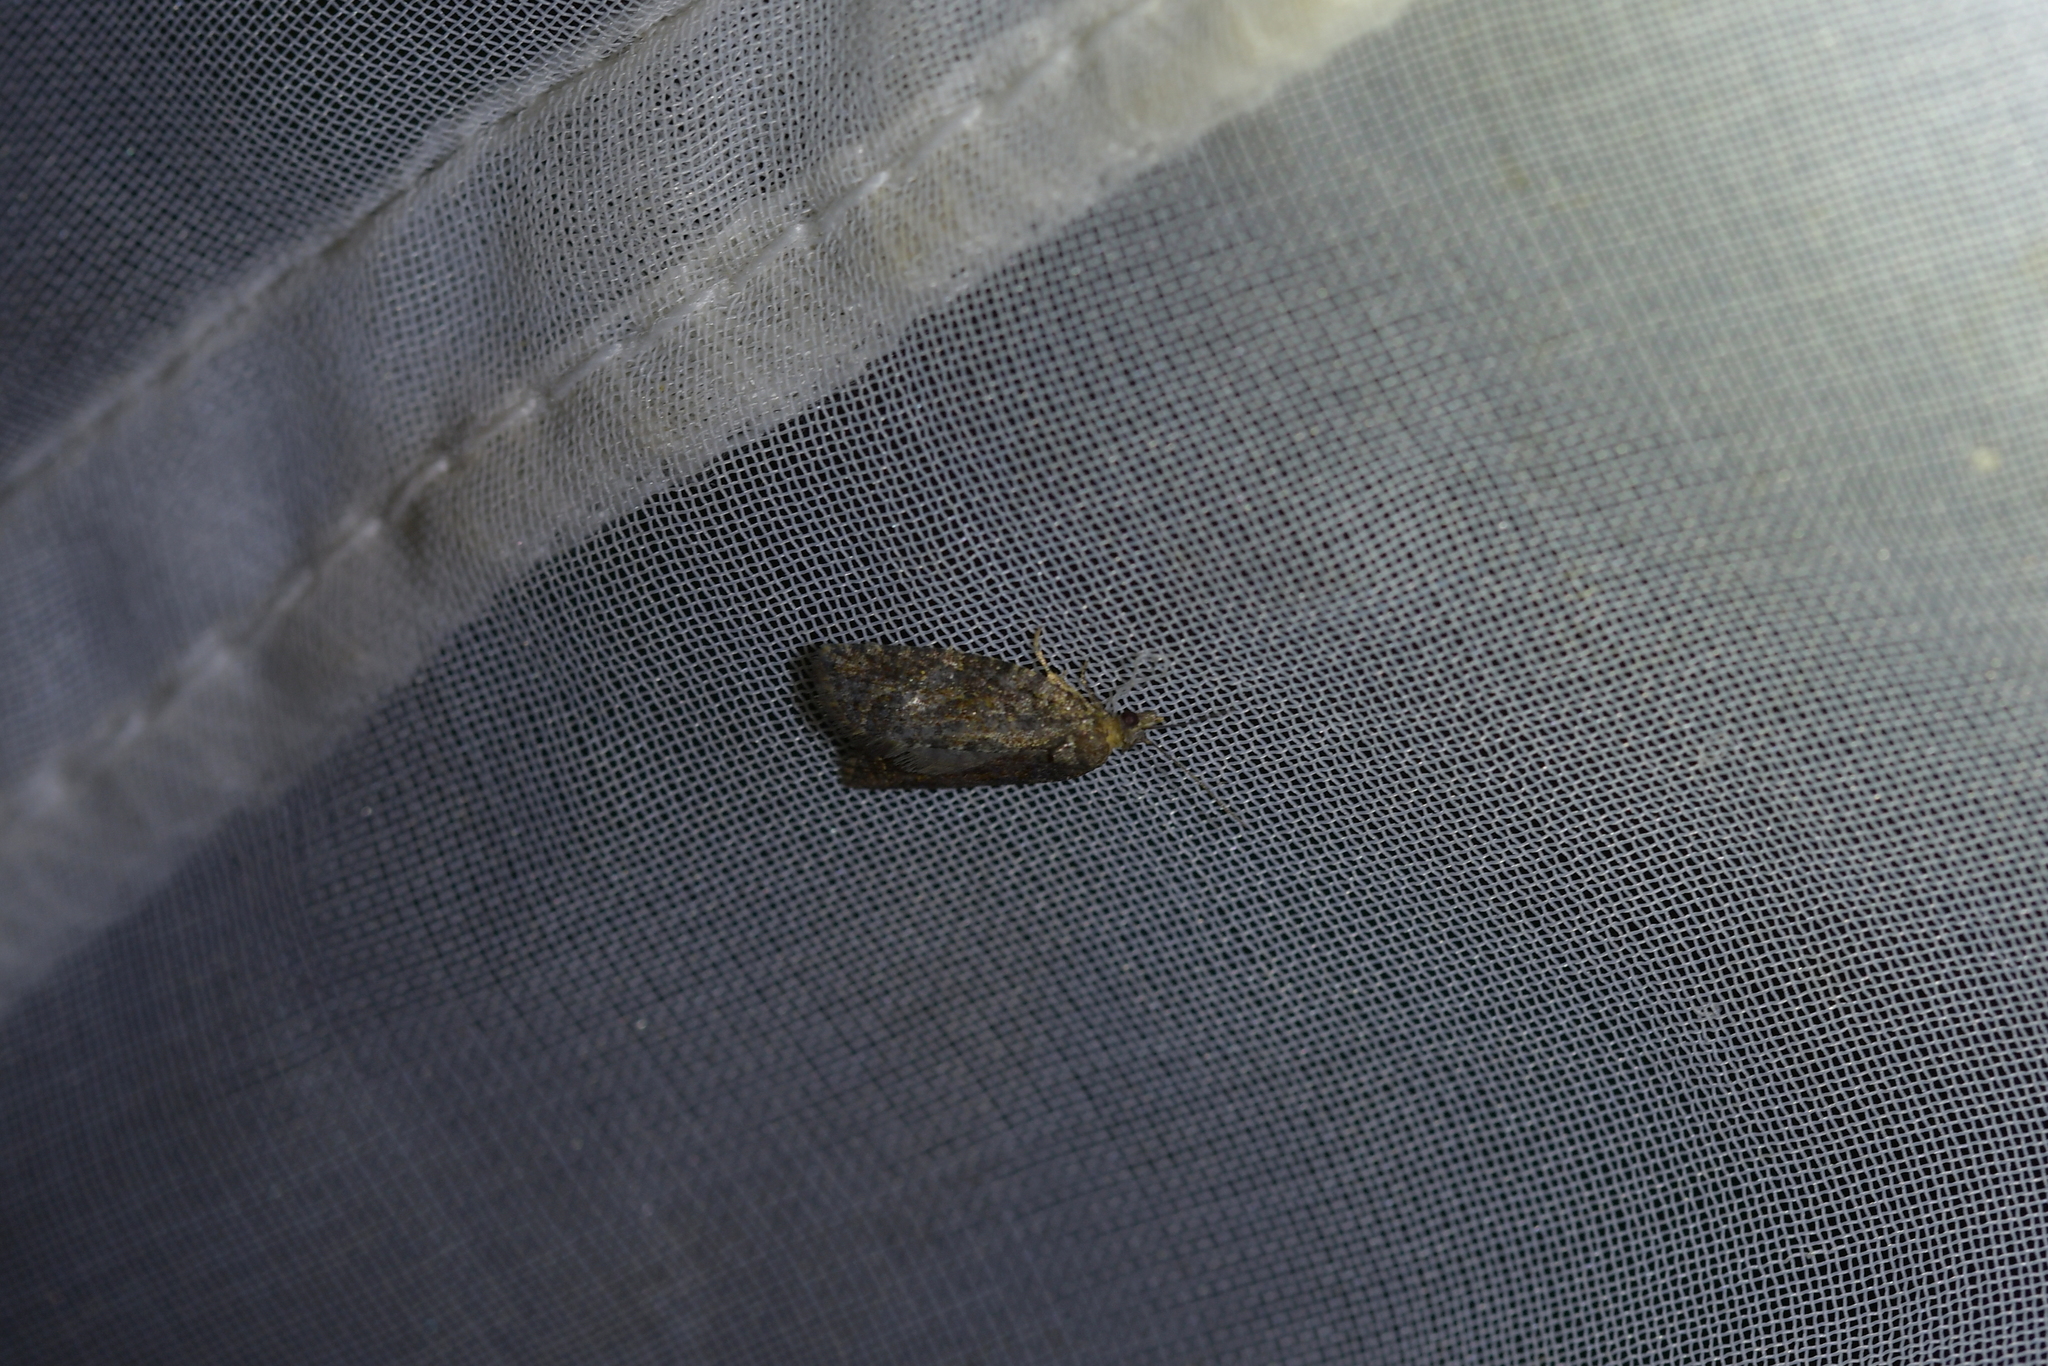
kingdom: Animalia
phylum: Arthropoda
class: Insecta
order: Lepidoptera
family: Tortricidae
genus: Capua
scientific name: Capua intractana
